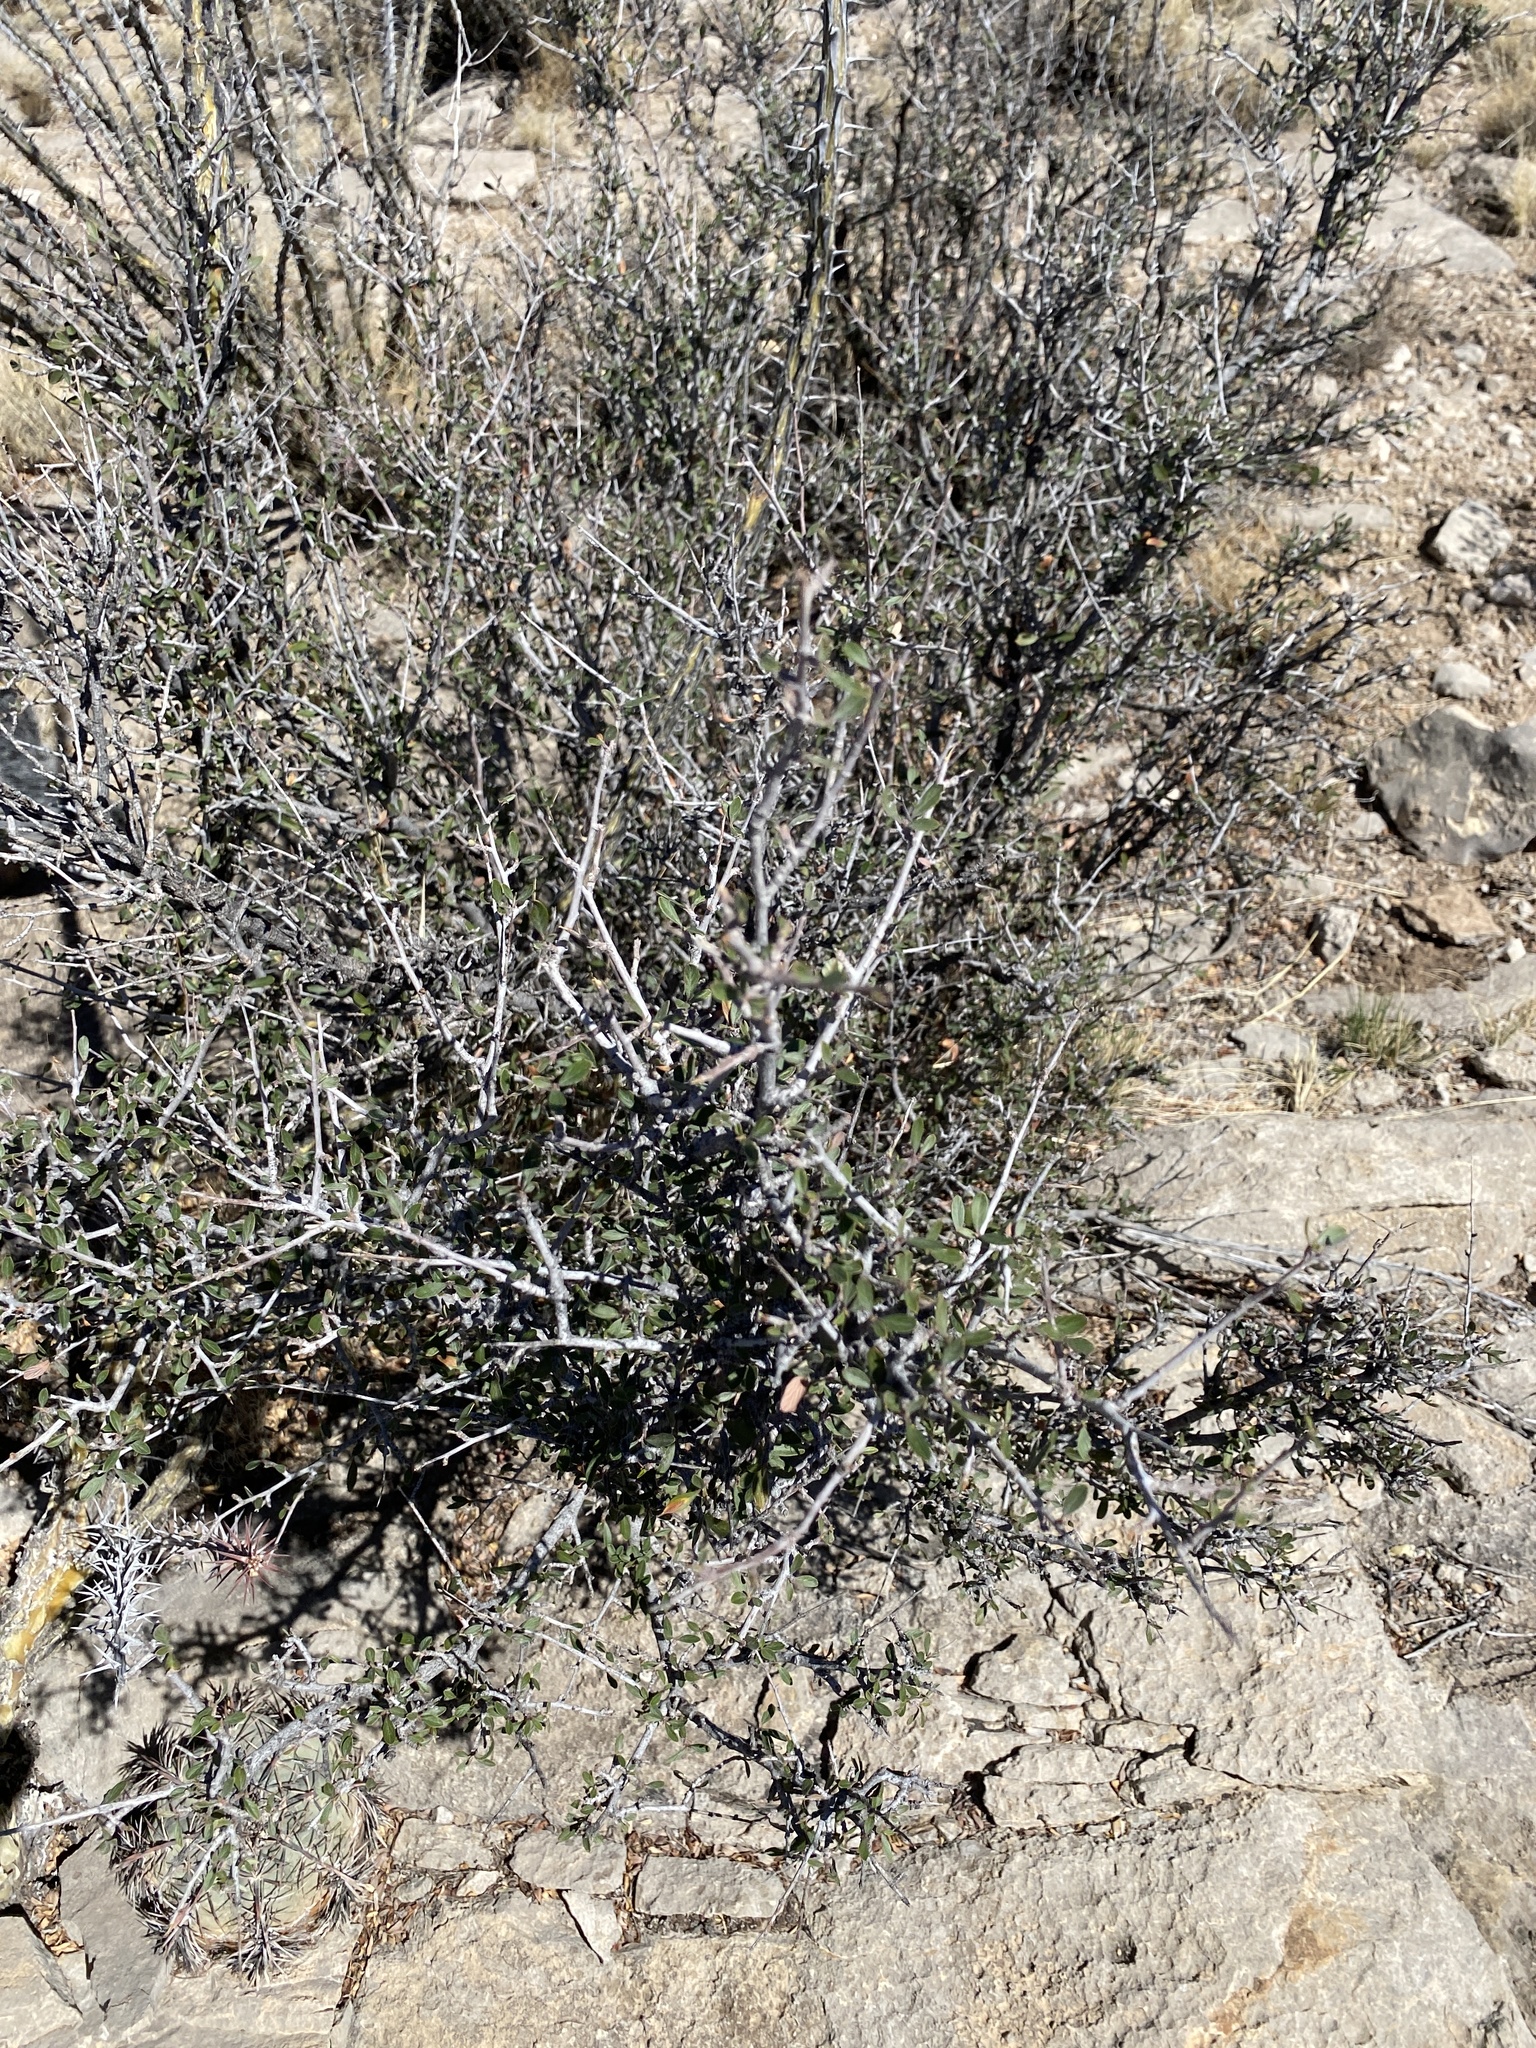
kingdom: Plantae
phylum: Tracheophyta
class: Magnoliopsida
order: Rosales
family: Rosaceae
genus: Cercocarpus
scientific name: Cercocarpus breviflorus
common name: Wright's mountain-mahogany
